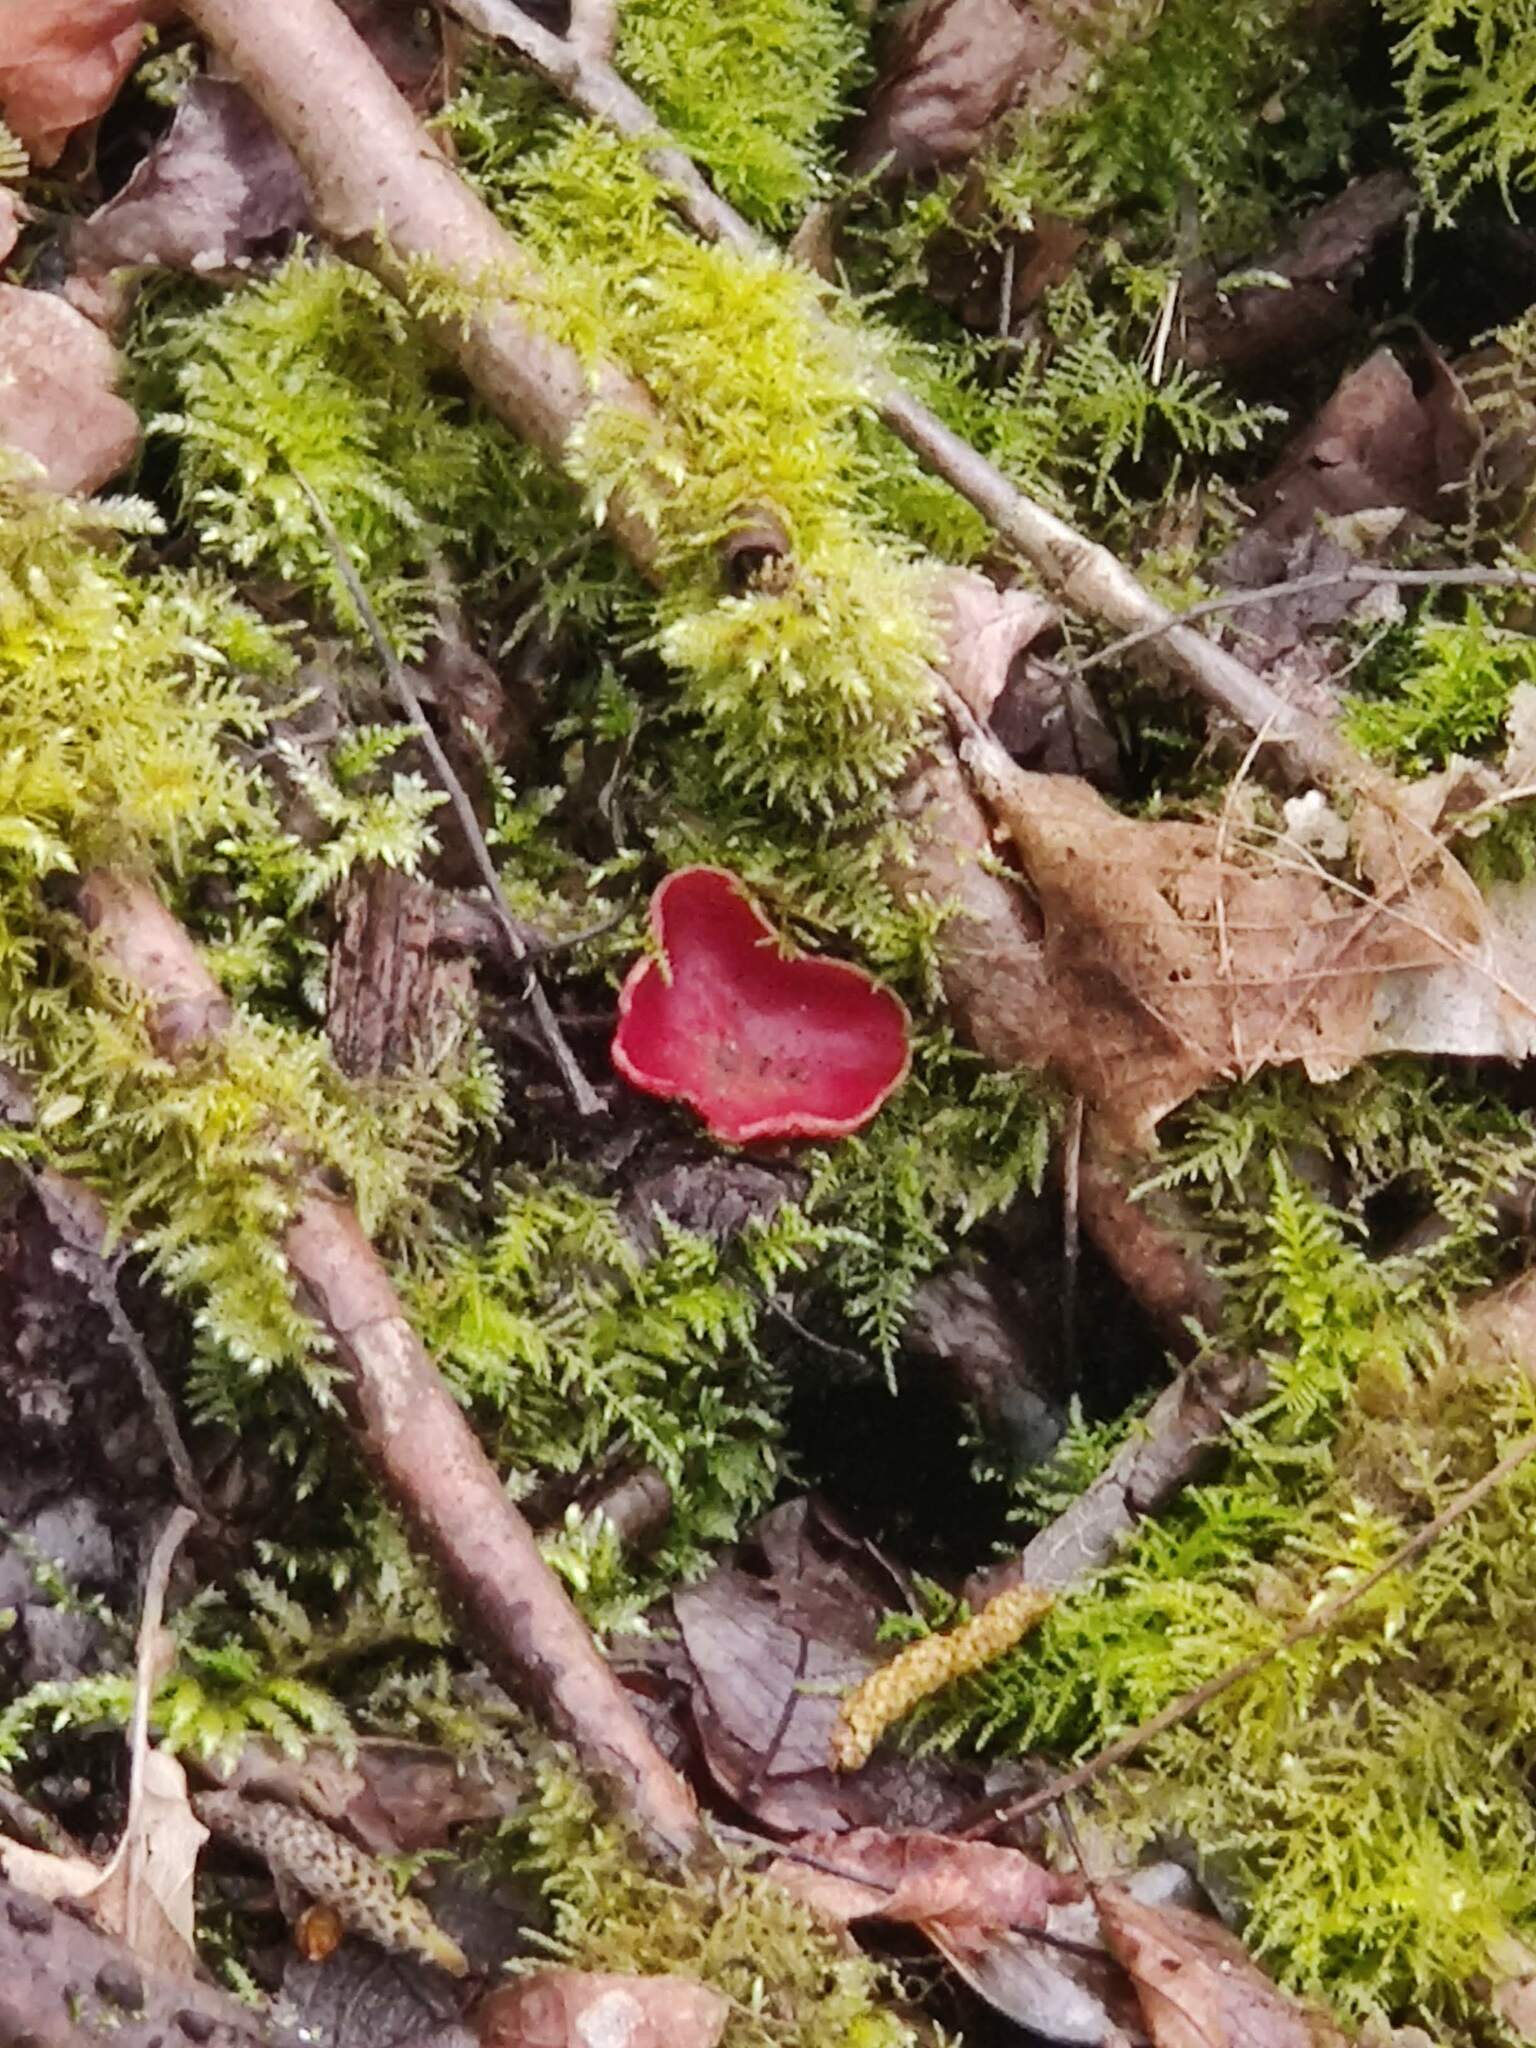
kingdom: Fungi
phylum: Ascomycota
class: Pezizomycetes
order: Pezizales
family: Sarcoscyphaceae
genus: Sarcoscypha
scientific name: Sarcoscypha
